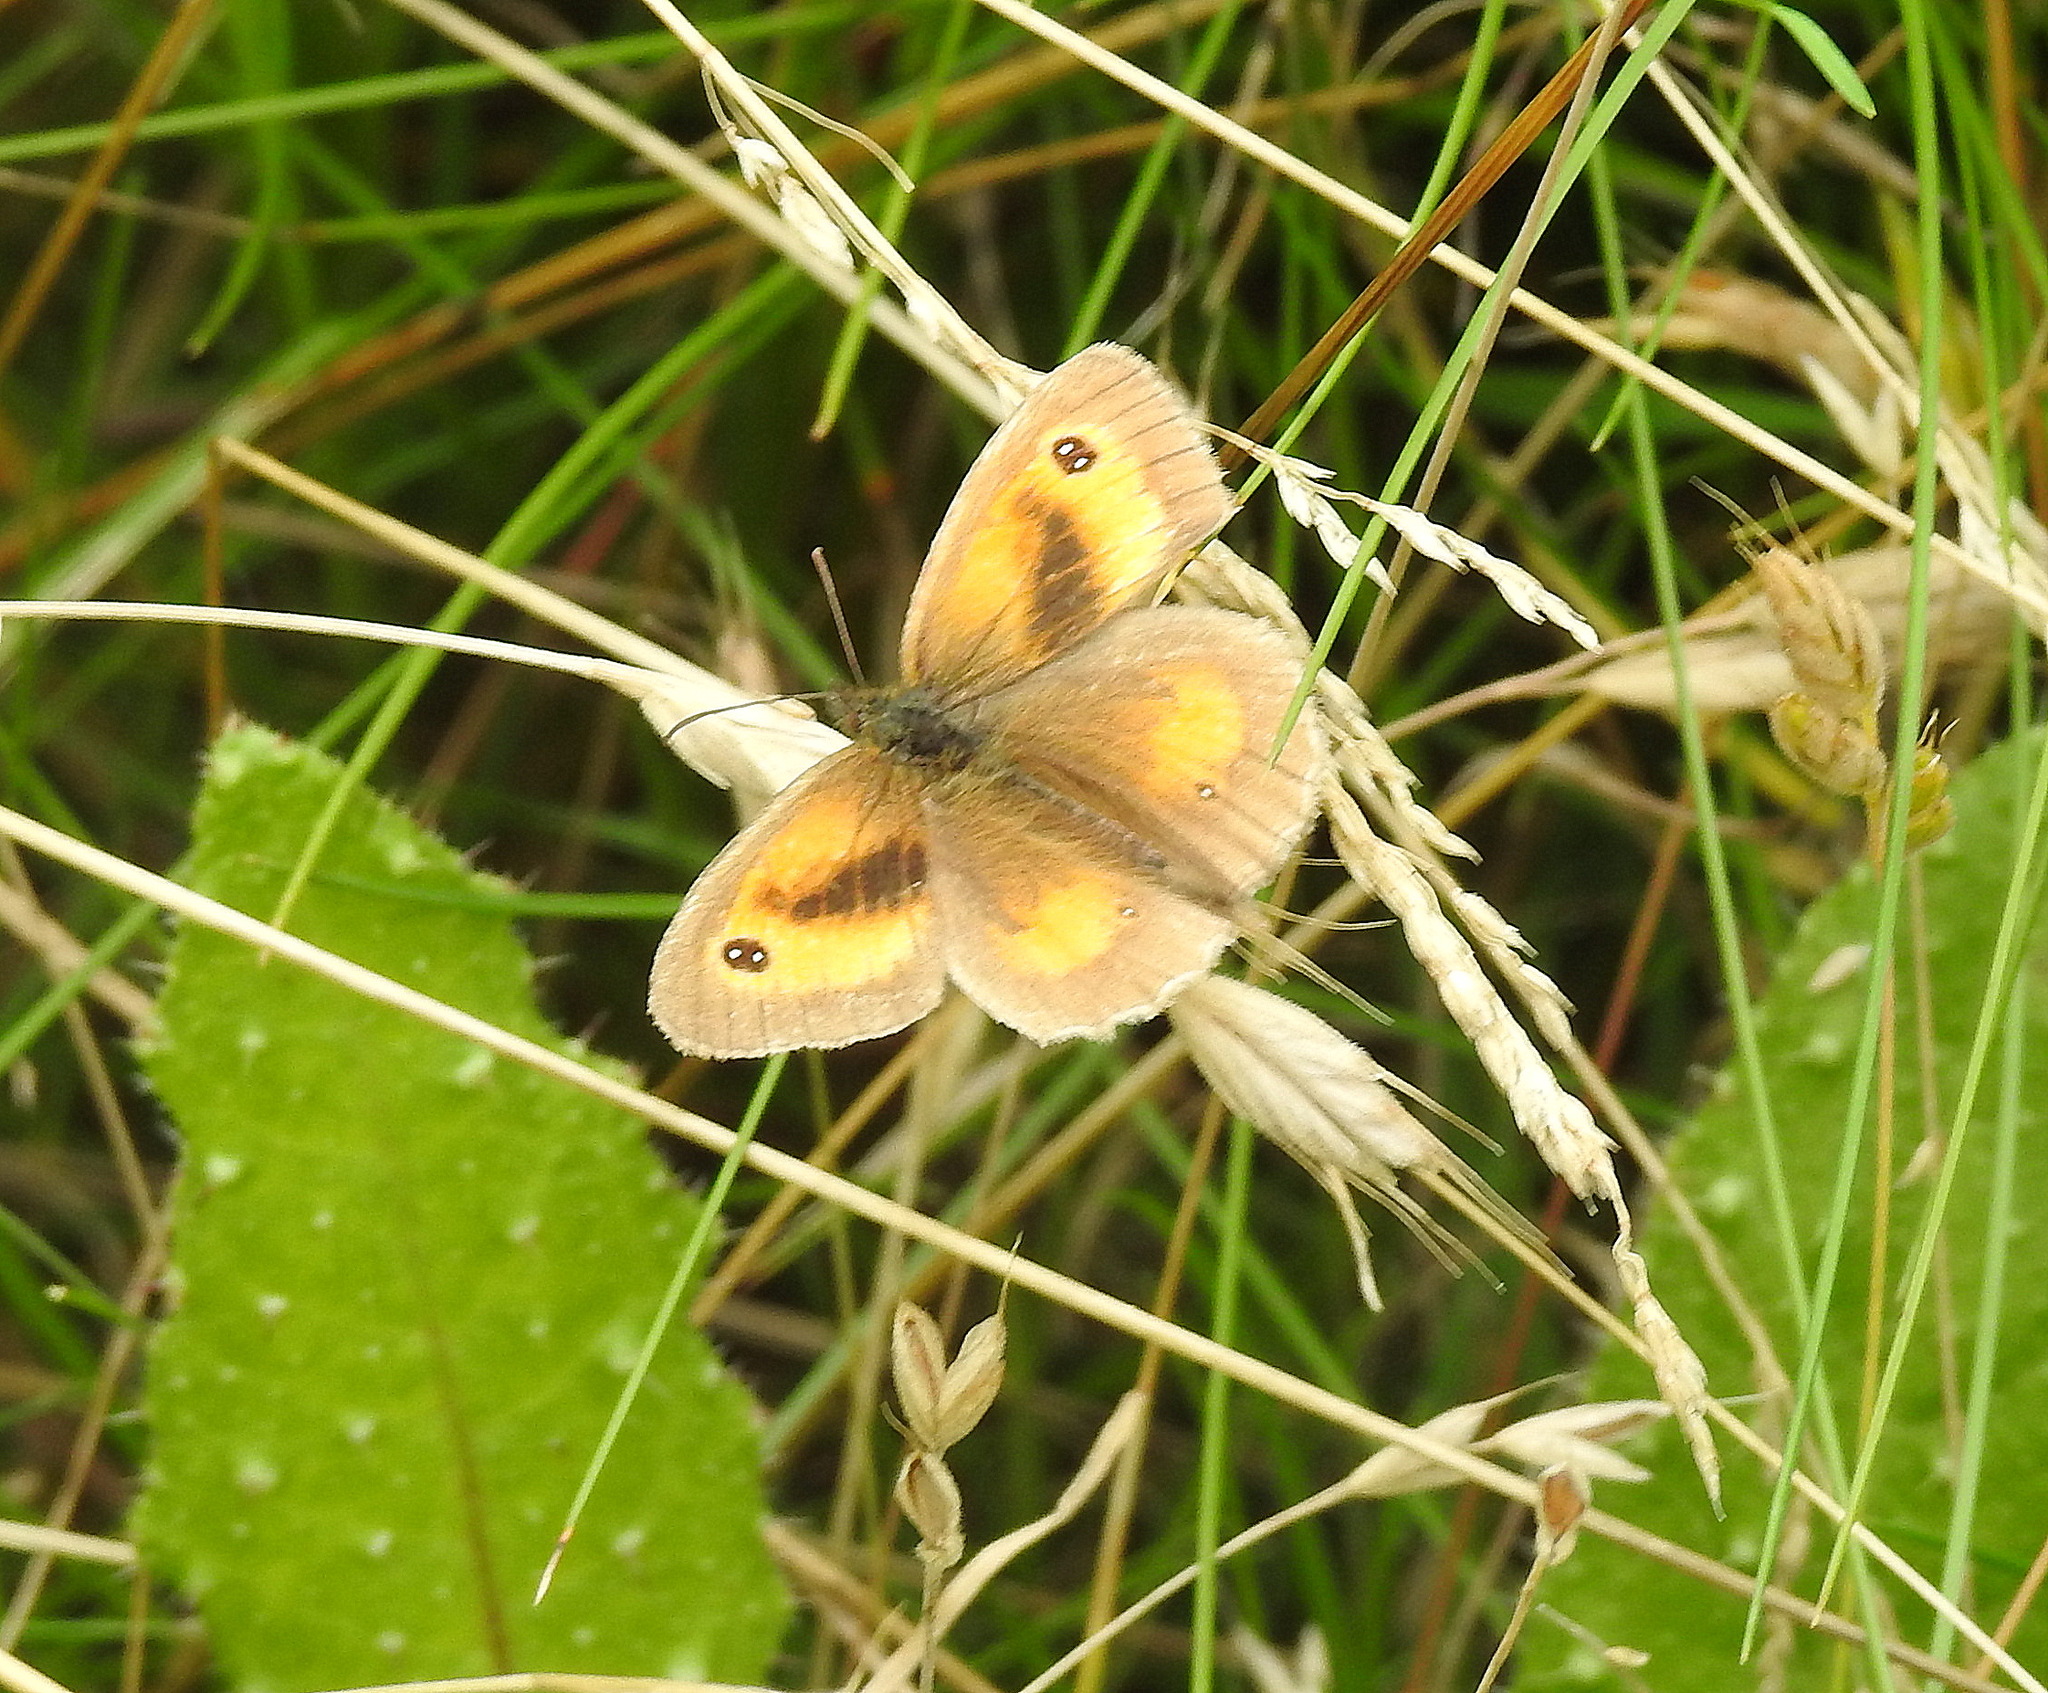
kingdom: Animalia
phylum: Arthropoda
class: Insecta
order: Lepidoptera
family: Nymphalidae
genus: Pyronia
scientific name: Pyronia tithonus
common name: Gatekeeper
